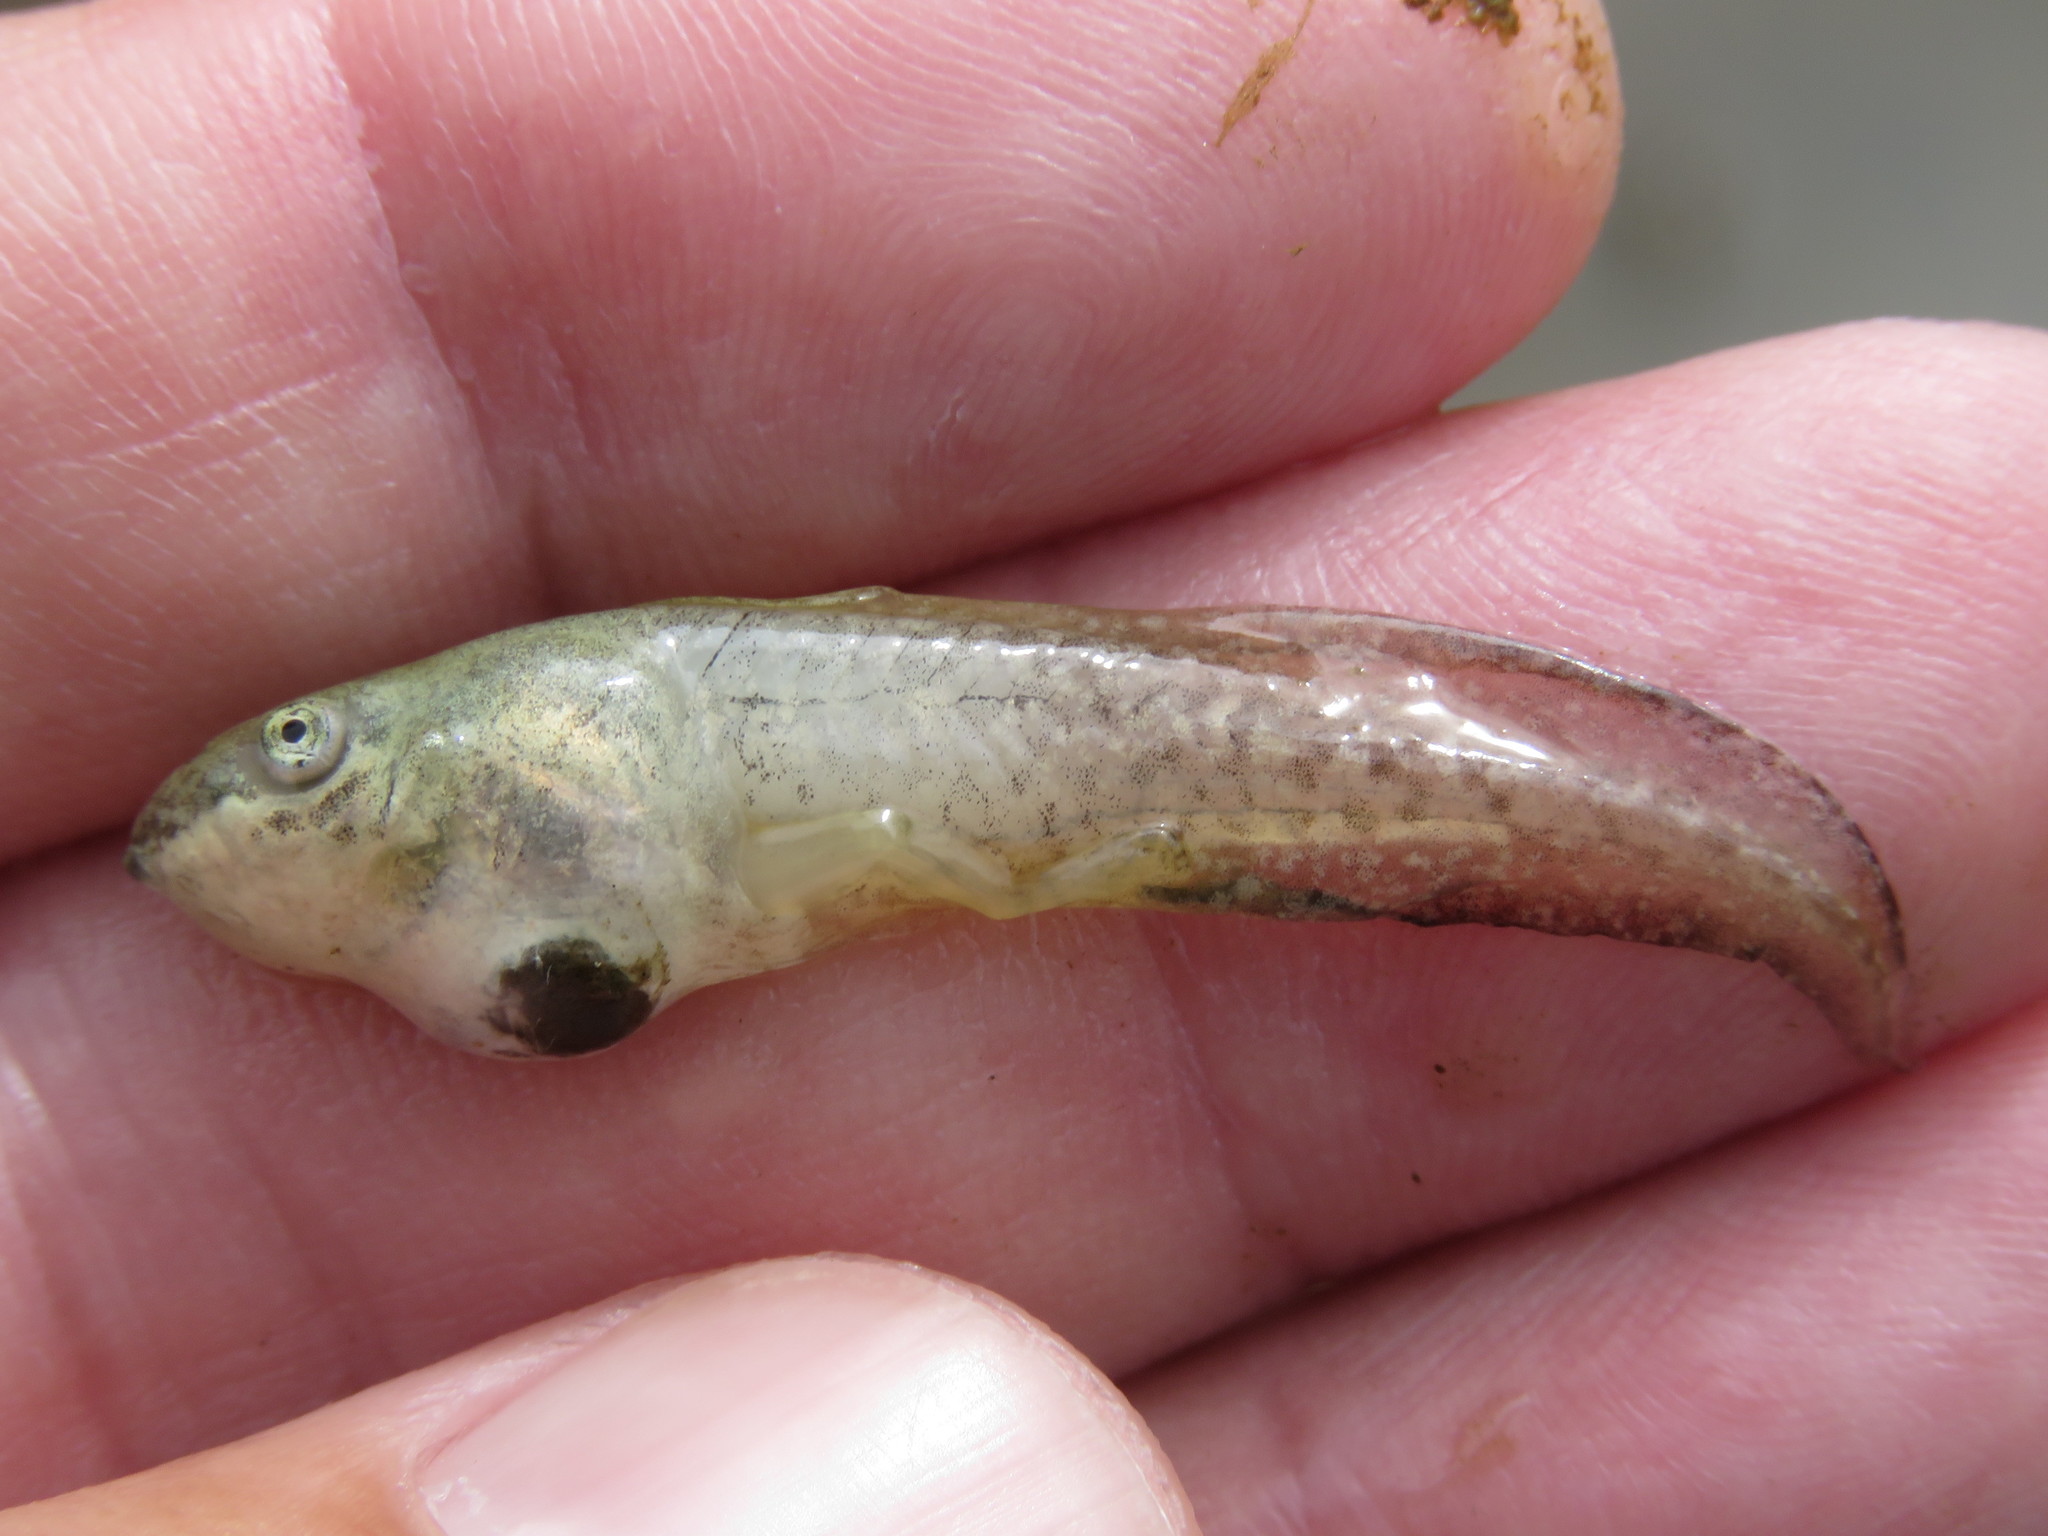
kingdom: Animalia
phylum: Chordata
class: Amphibia
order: Anura
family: Hylidae
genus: Scinax
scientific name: Scinax quinquefasciatus
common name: Fowler's snouted treefrog
